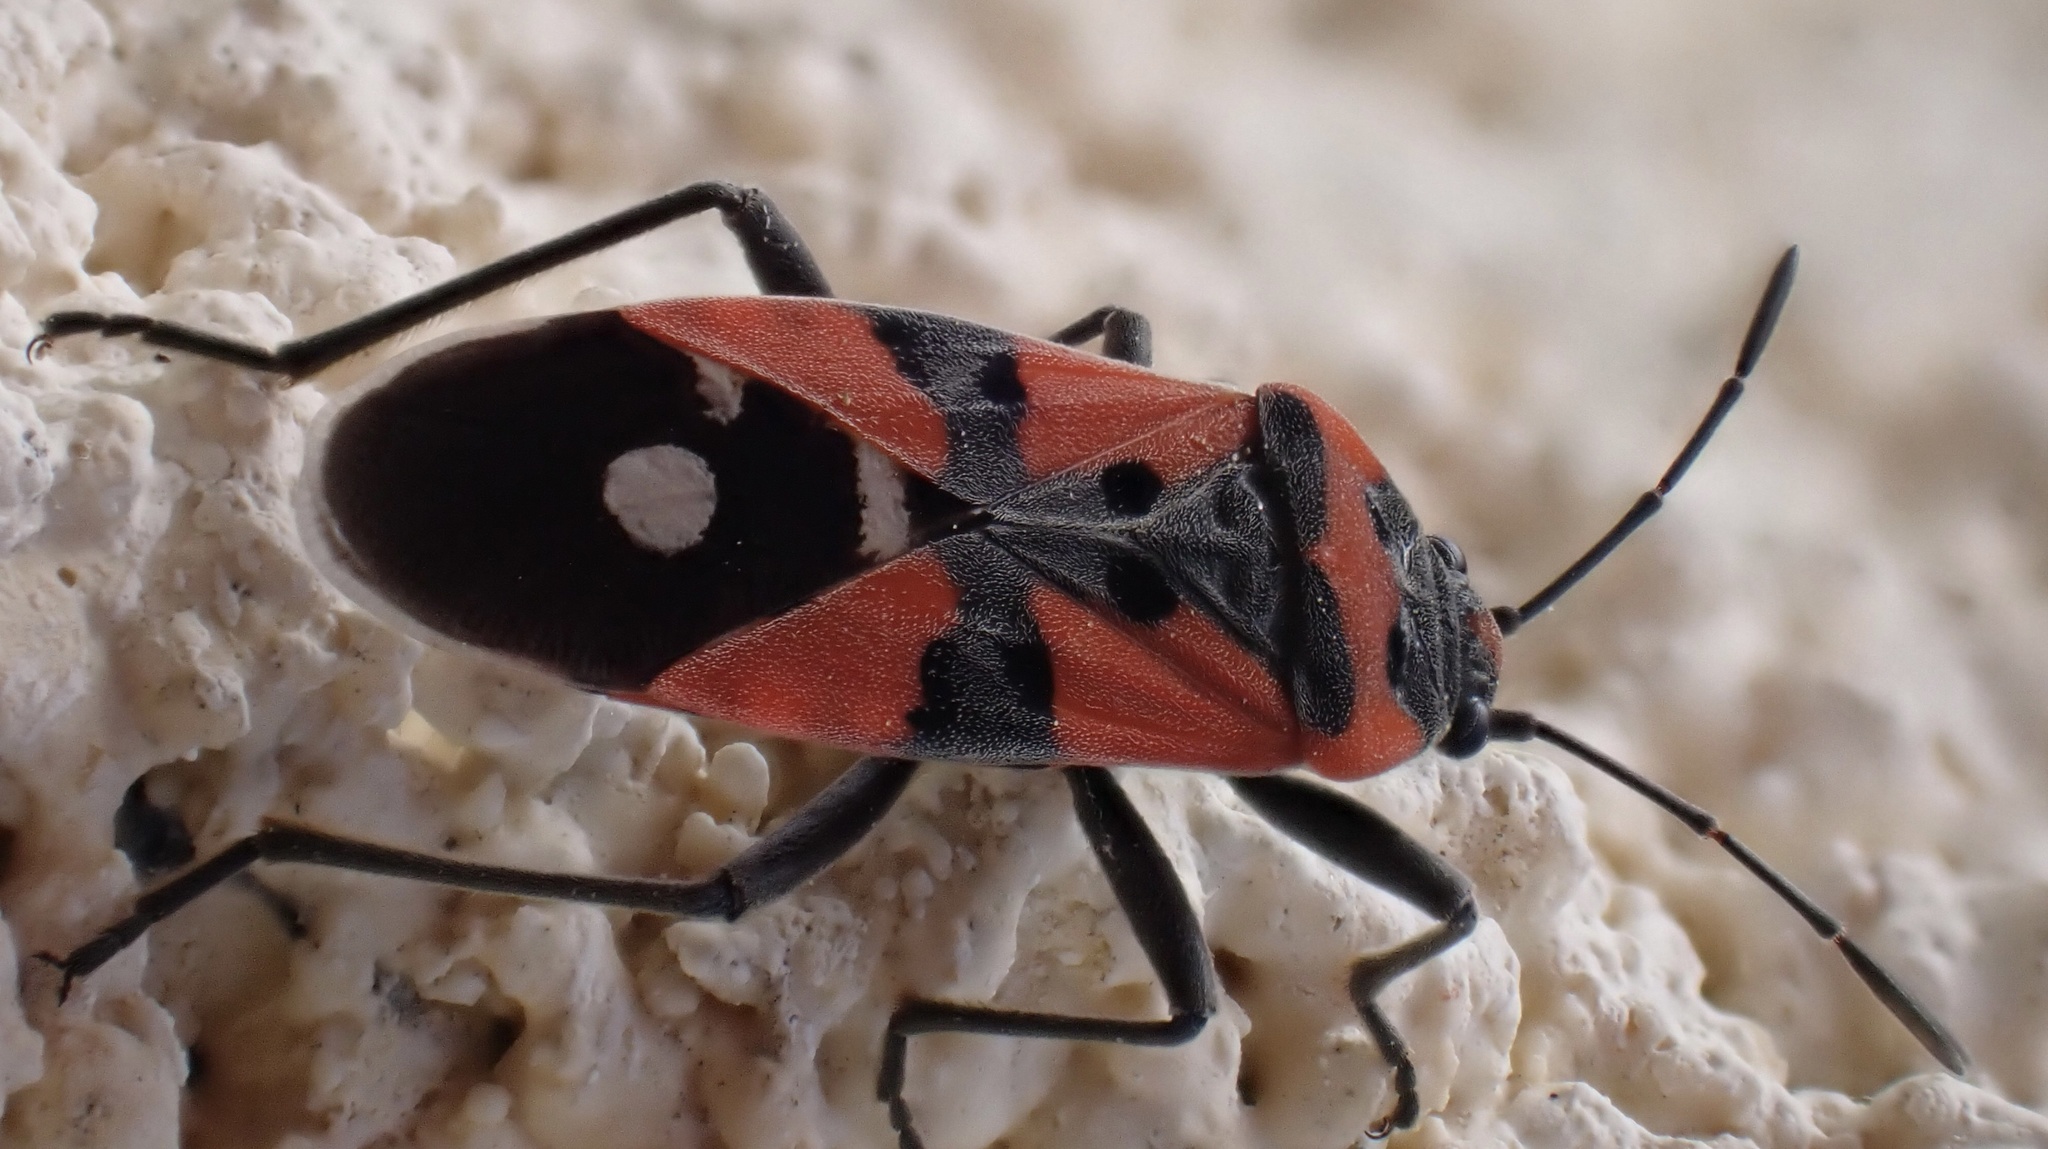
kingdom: Animalia
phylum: Arthropoda
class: Insecta
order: Hemiptera
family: Lygaeidae
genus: Lygaeus
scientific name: Lygaeus equestris
